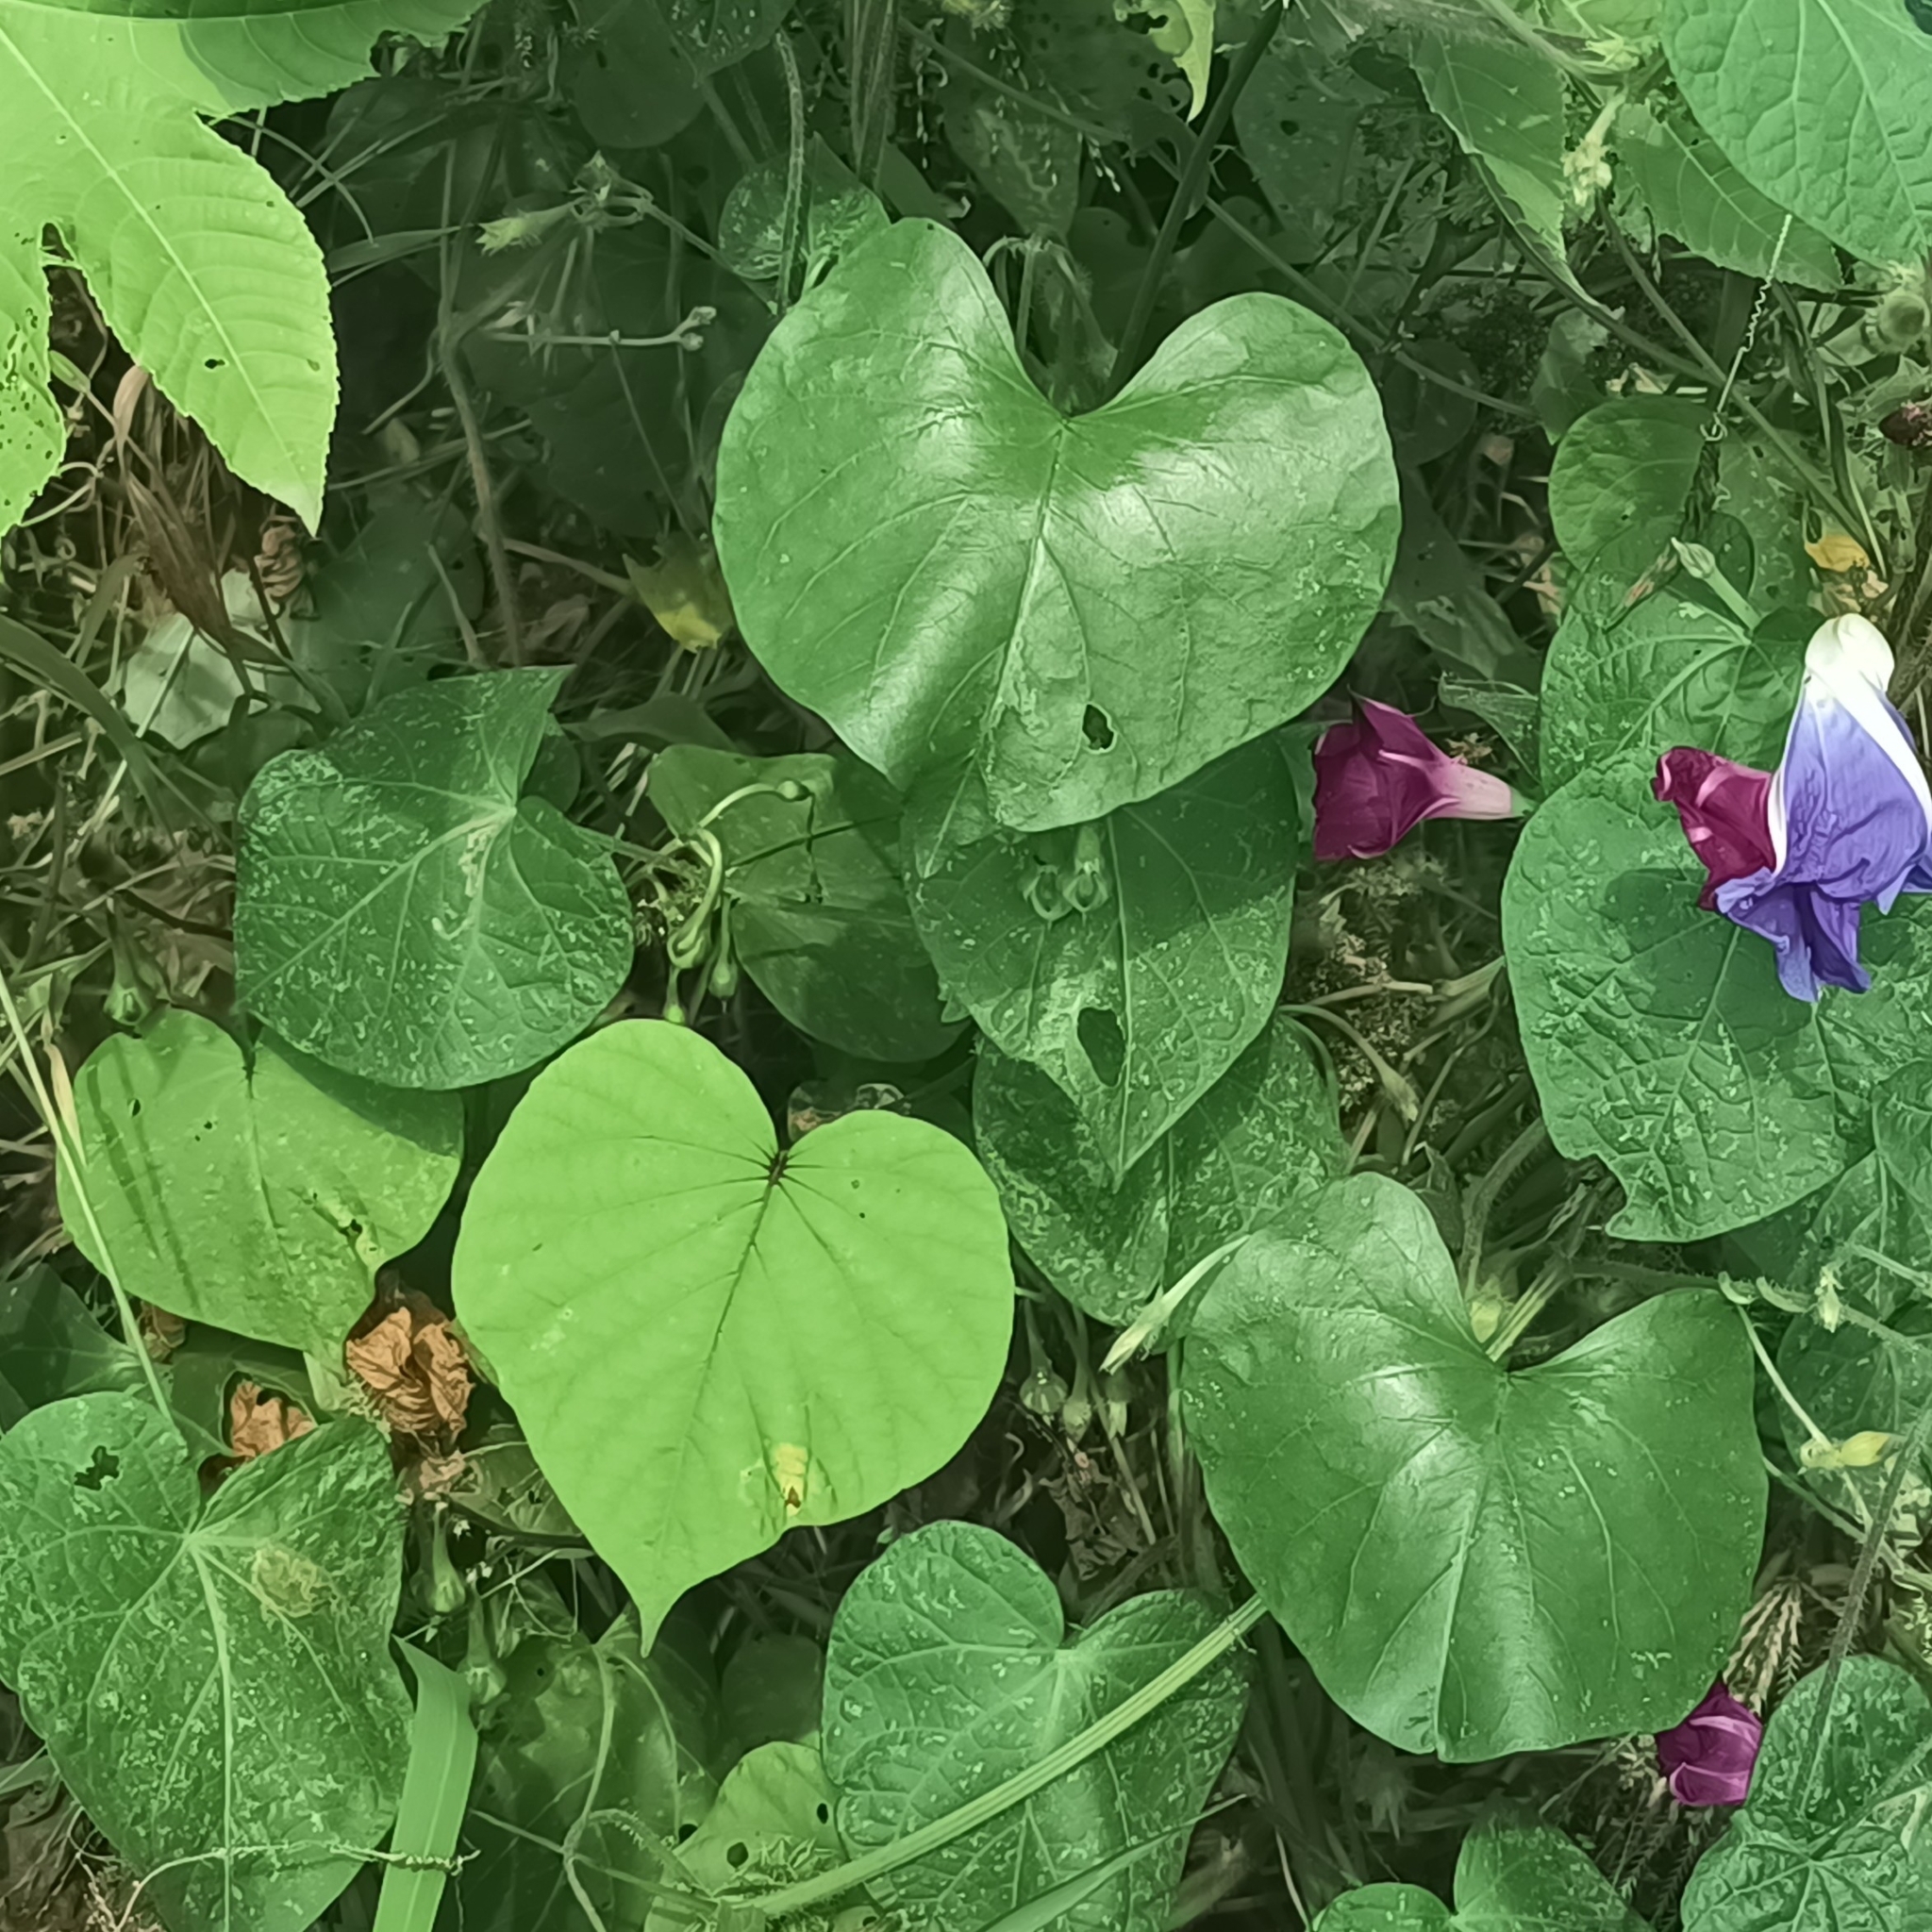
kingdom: Plantae
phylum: Tracheophyta
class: Magnoliopsida
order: Solanales
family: Convolvulaceae
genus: Ipomoea
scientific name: Ipomoea tricolor
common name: Morning-glory
